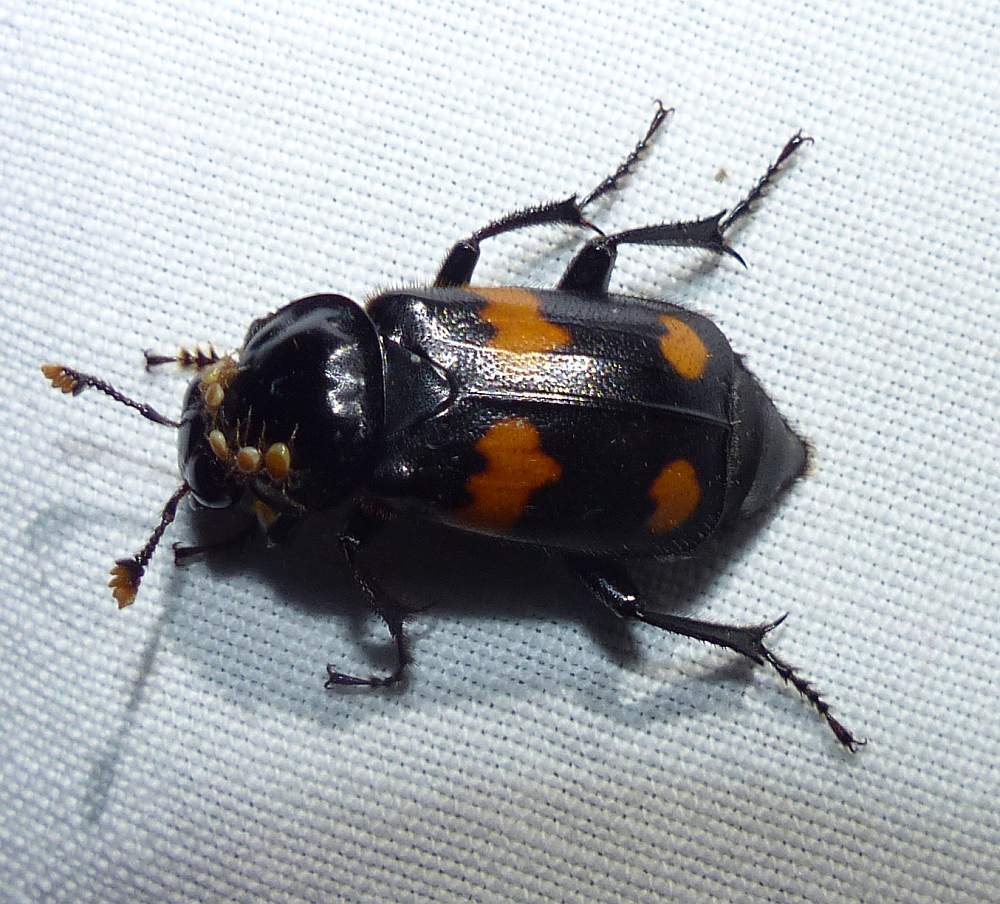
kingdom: Animalia
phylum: Arthropoda
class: Insecta
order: Coleoptera
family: Staphylinidae
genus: Nicrophorus
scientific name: Nicrophorus orbicollis
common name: Roundneck sexton beetle
